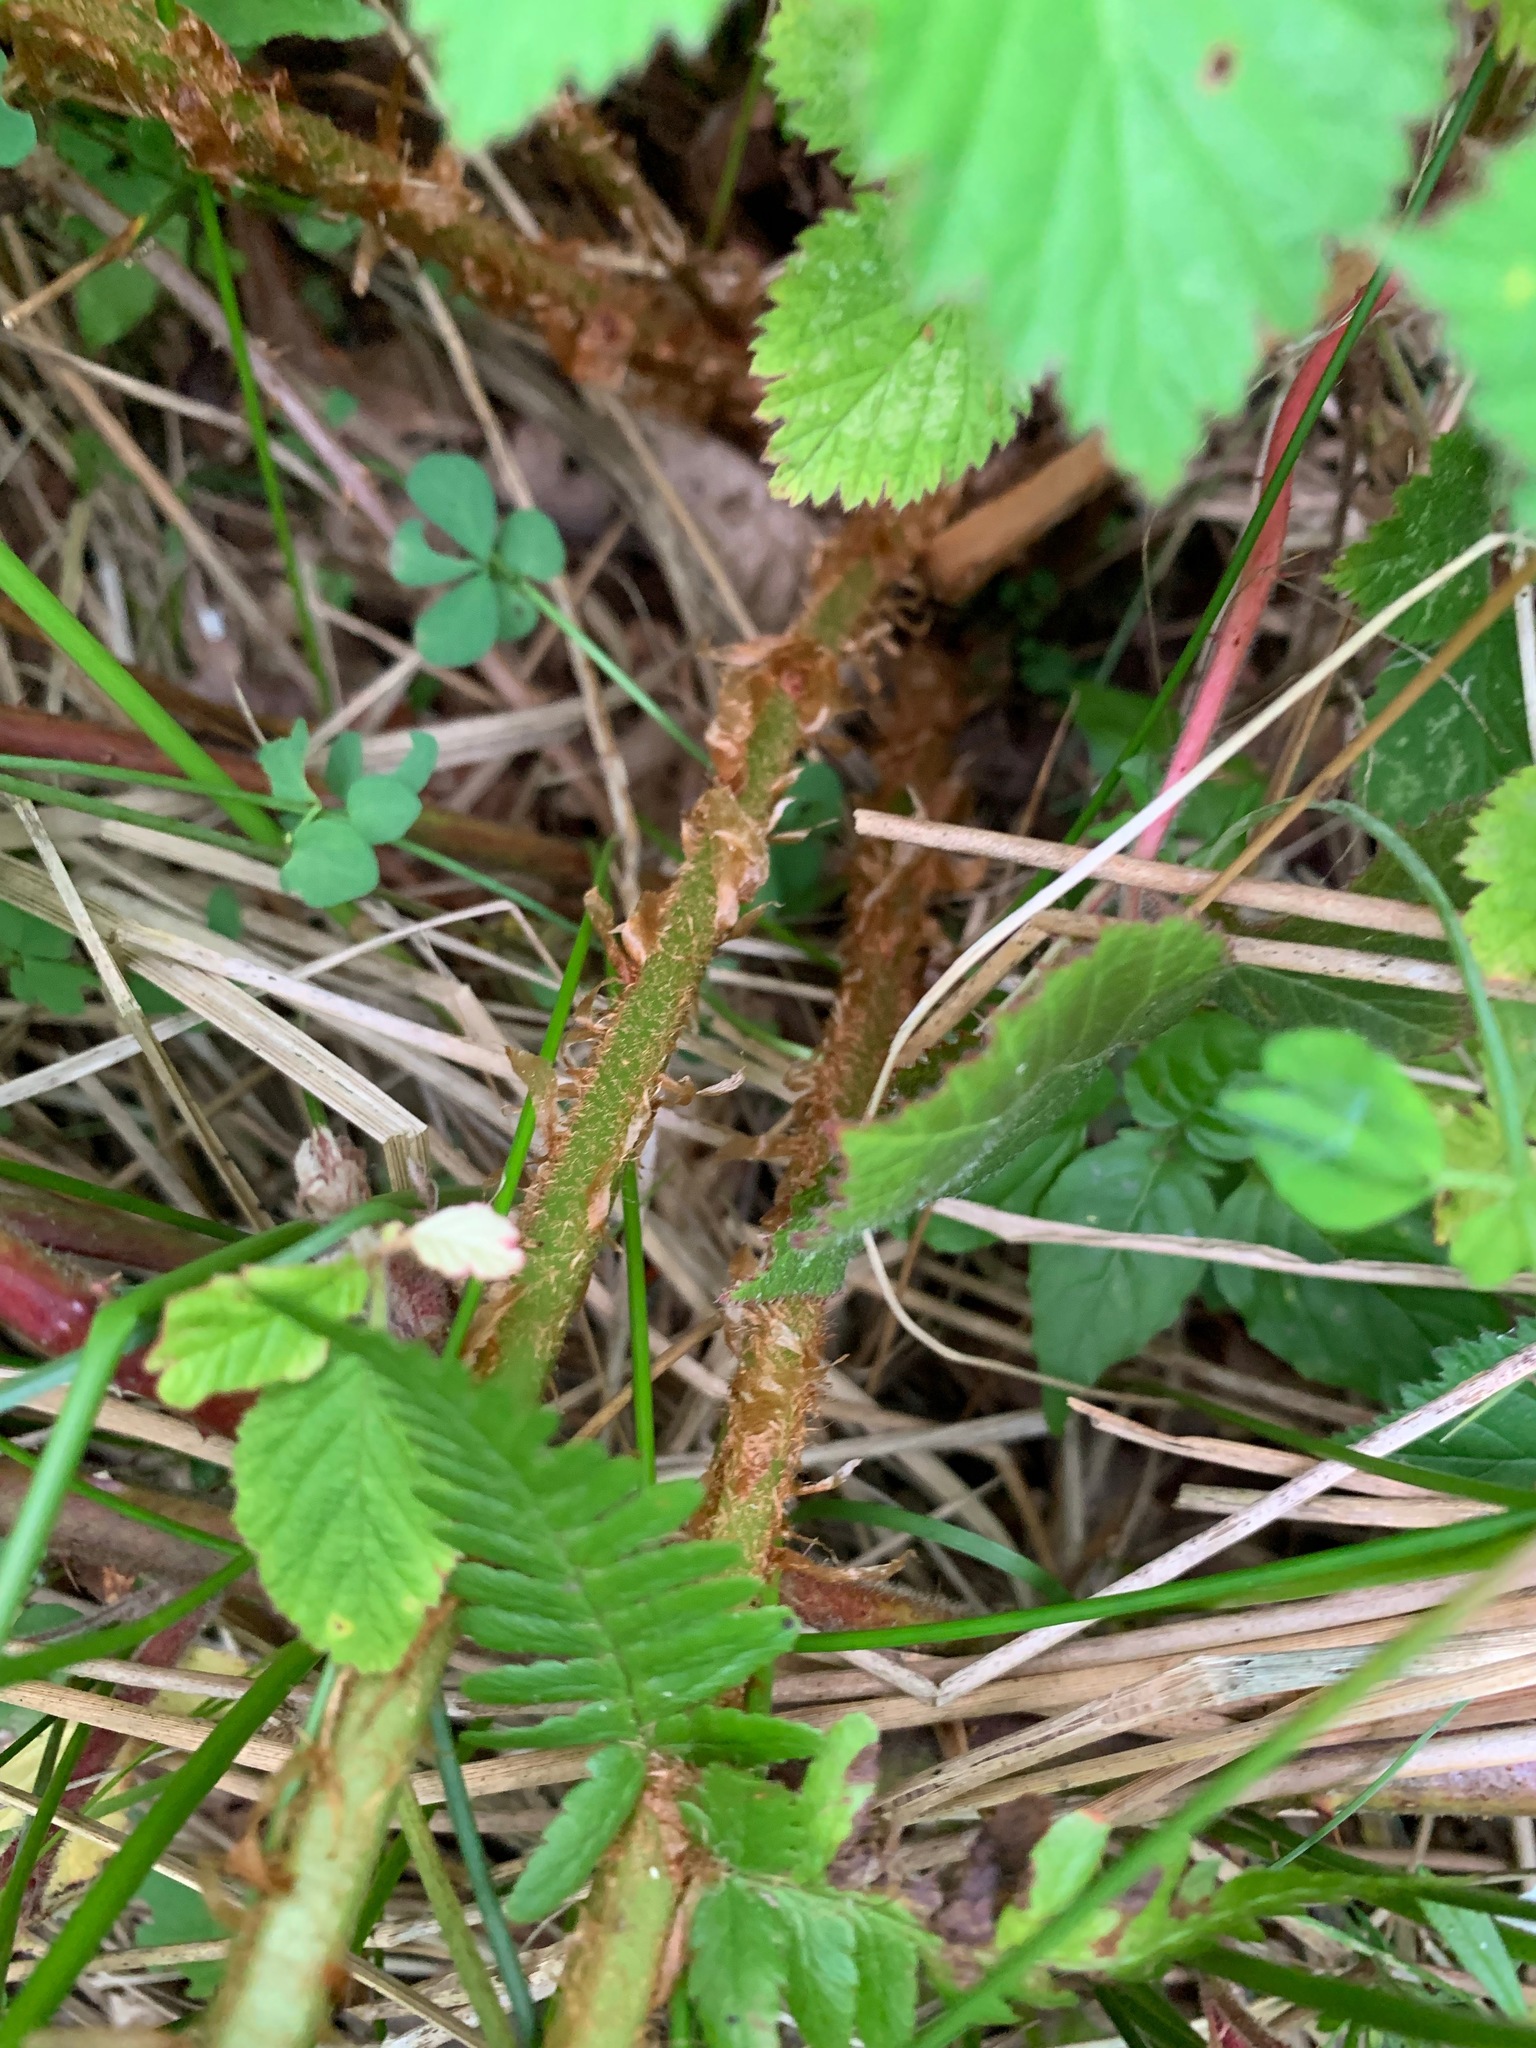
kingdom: Plantae
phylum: Tracheophyta
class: Polypodiopsida
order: Polypodiales
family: Dryopteridaceae
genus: Dryopteris
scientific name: Dryopteris filix-mas
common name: Male fern
